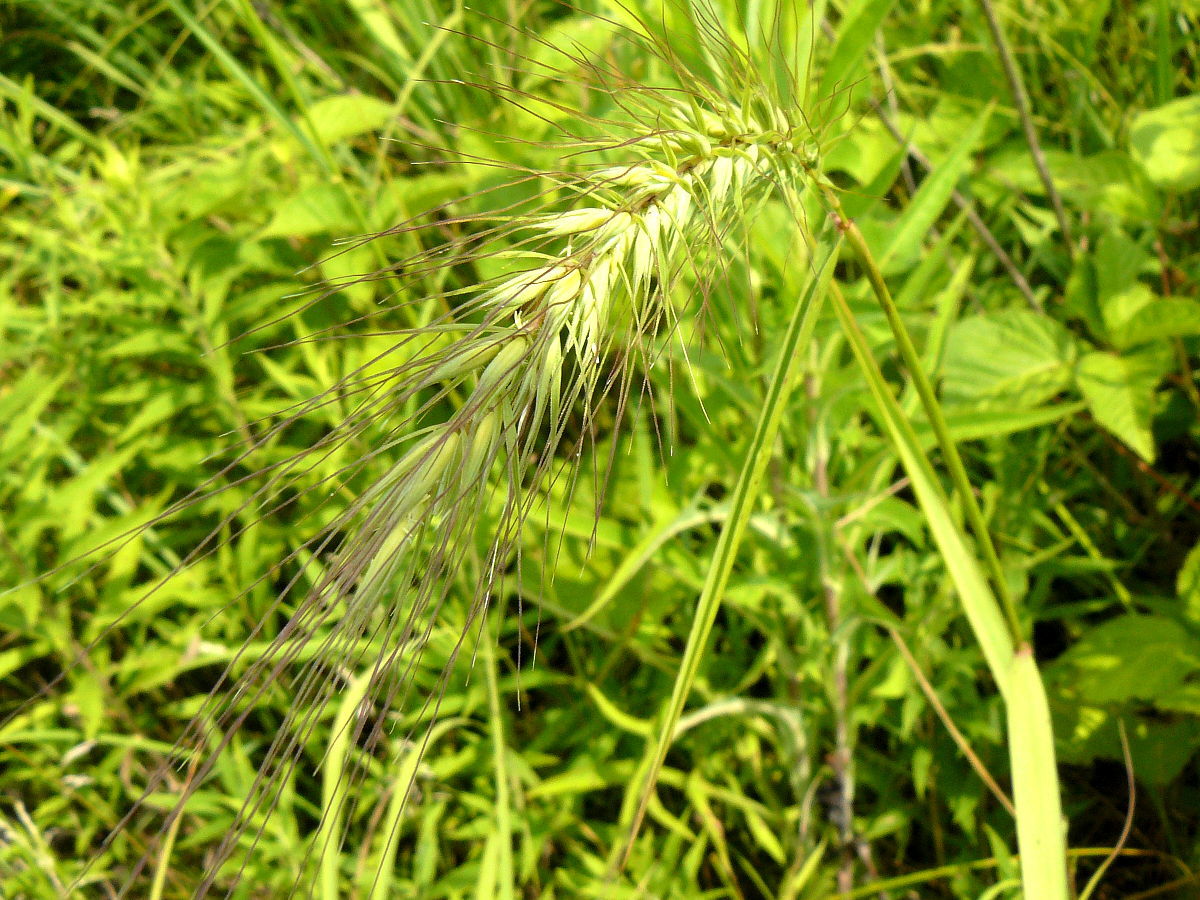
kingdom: Plantae
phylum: Tracheophyta
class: Liliopsida
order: Poales
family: Poaceae
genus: Elymus
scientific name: Elymus riparius
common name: Eastern riverbank wild rye
